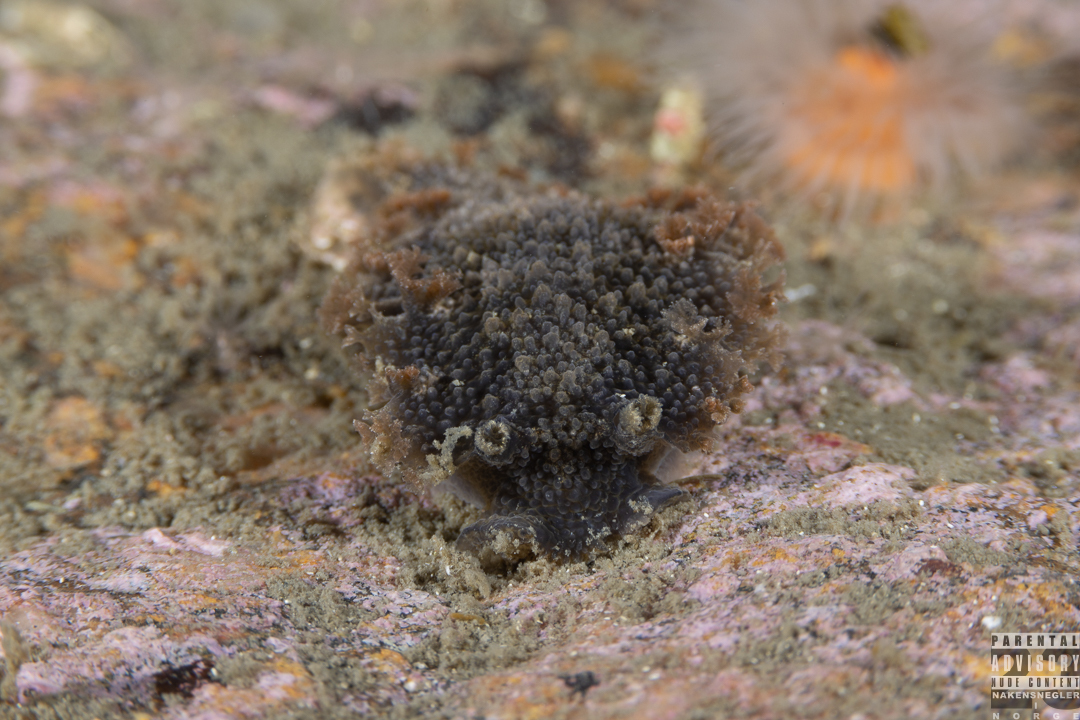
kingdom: Animalia
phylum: Mollusca
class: Gastropoda
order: Nudibranchia
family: Tritoniidae
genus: Tritonia
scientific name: Tritonia hombergii
